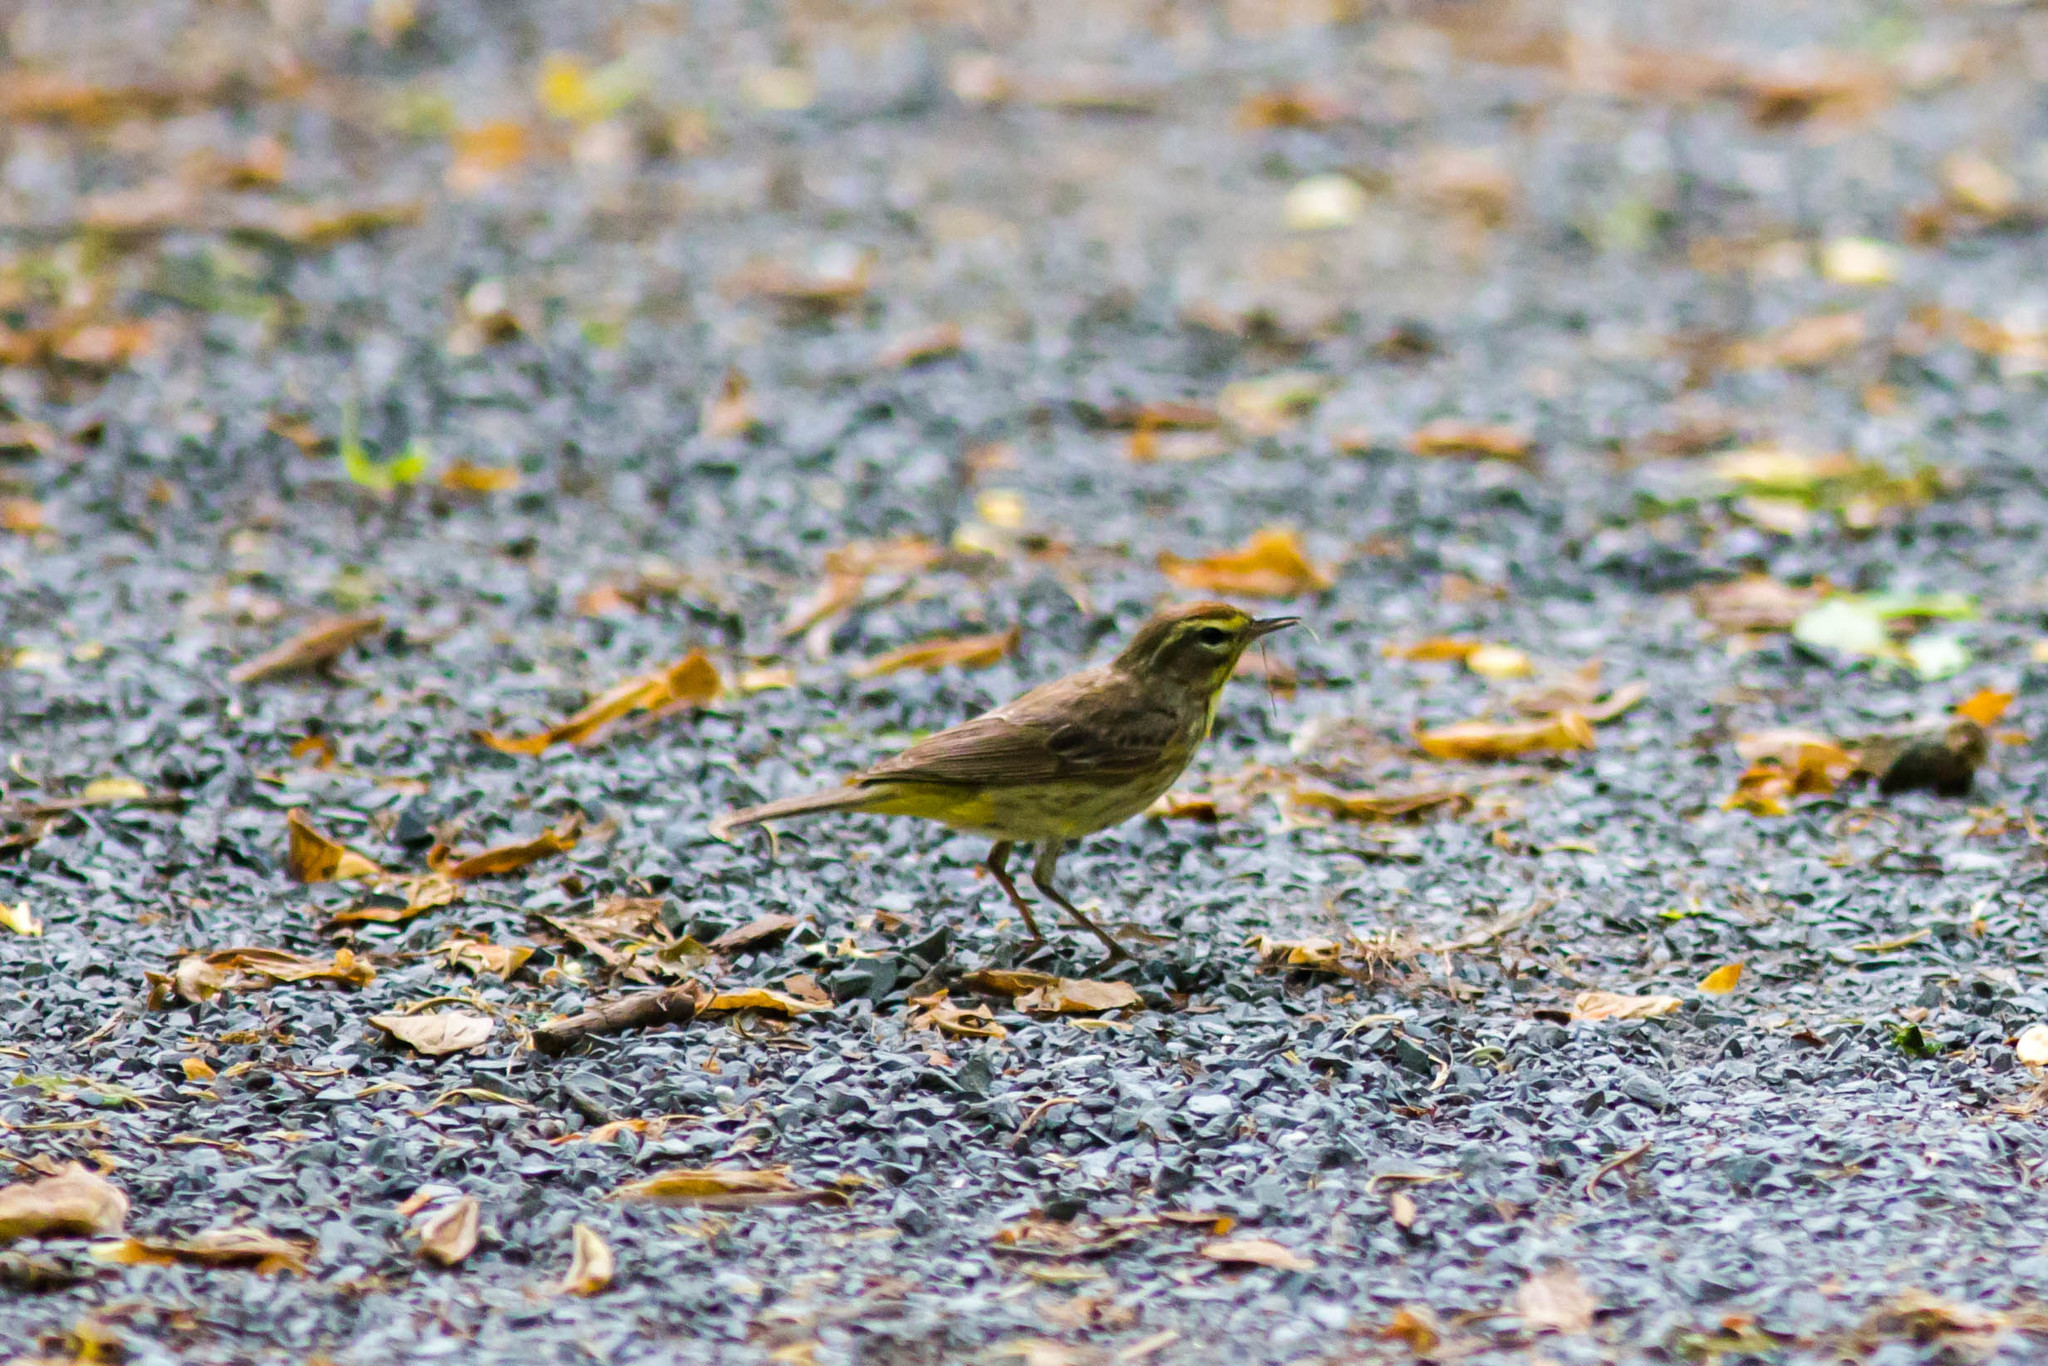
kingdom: Animalia
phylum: Chordata
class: Aves
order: Passeriformes
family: Parulidae
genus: Setophaga
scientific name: Setophaga palmarum
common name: Palm warbler
